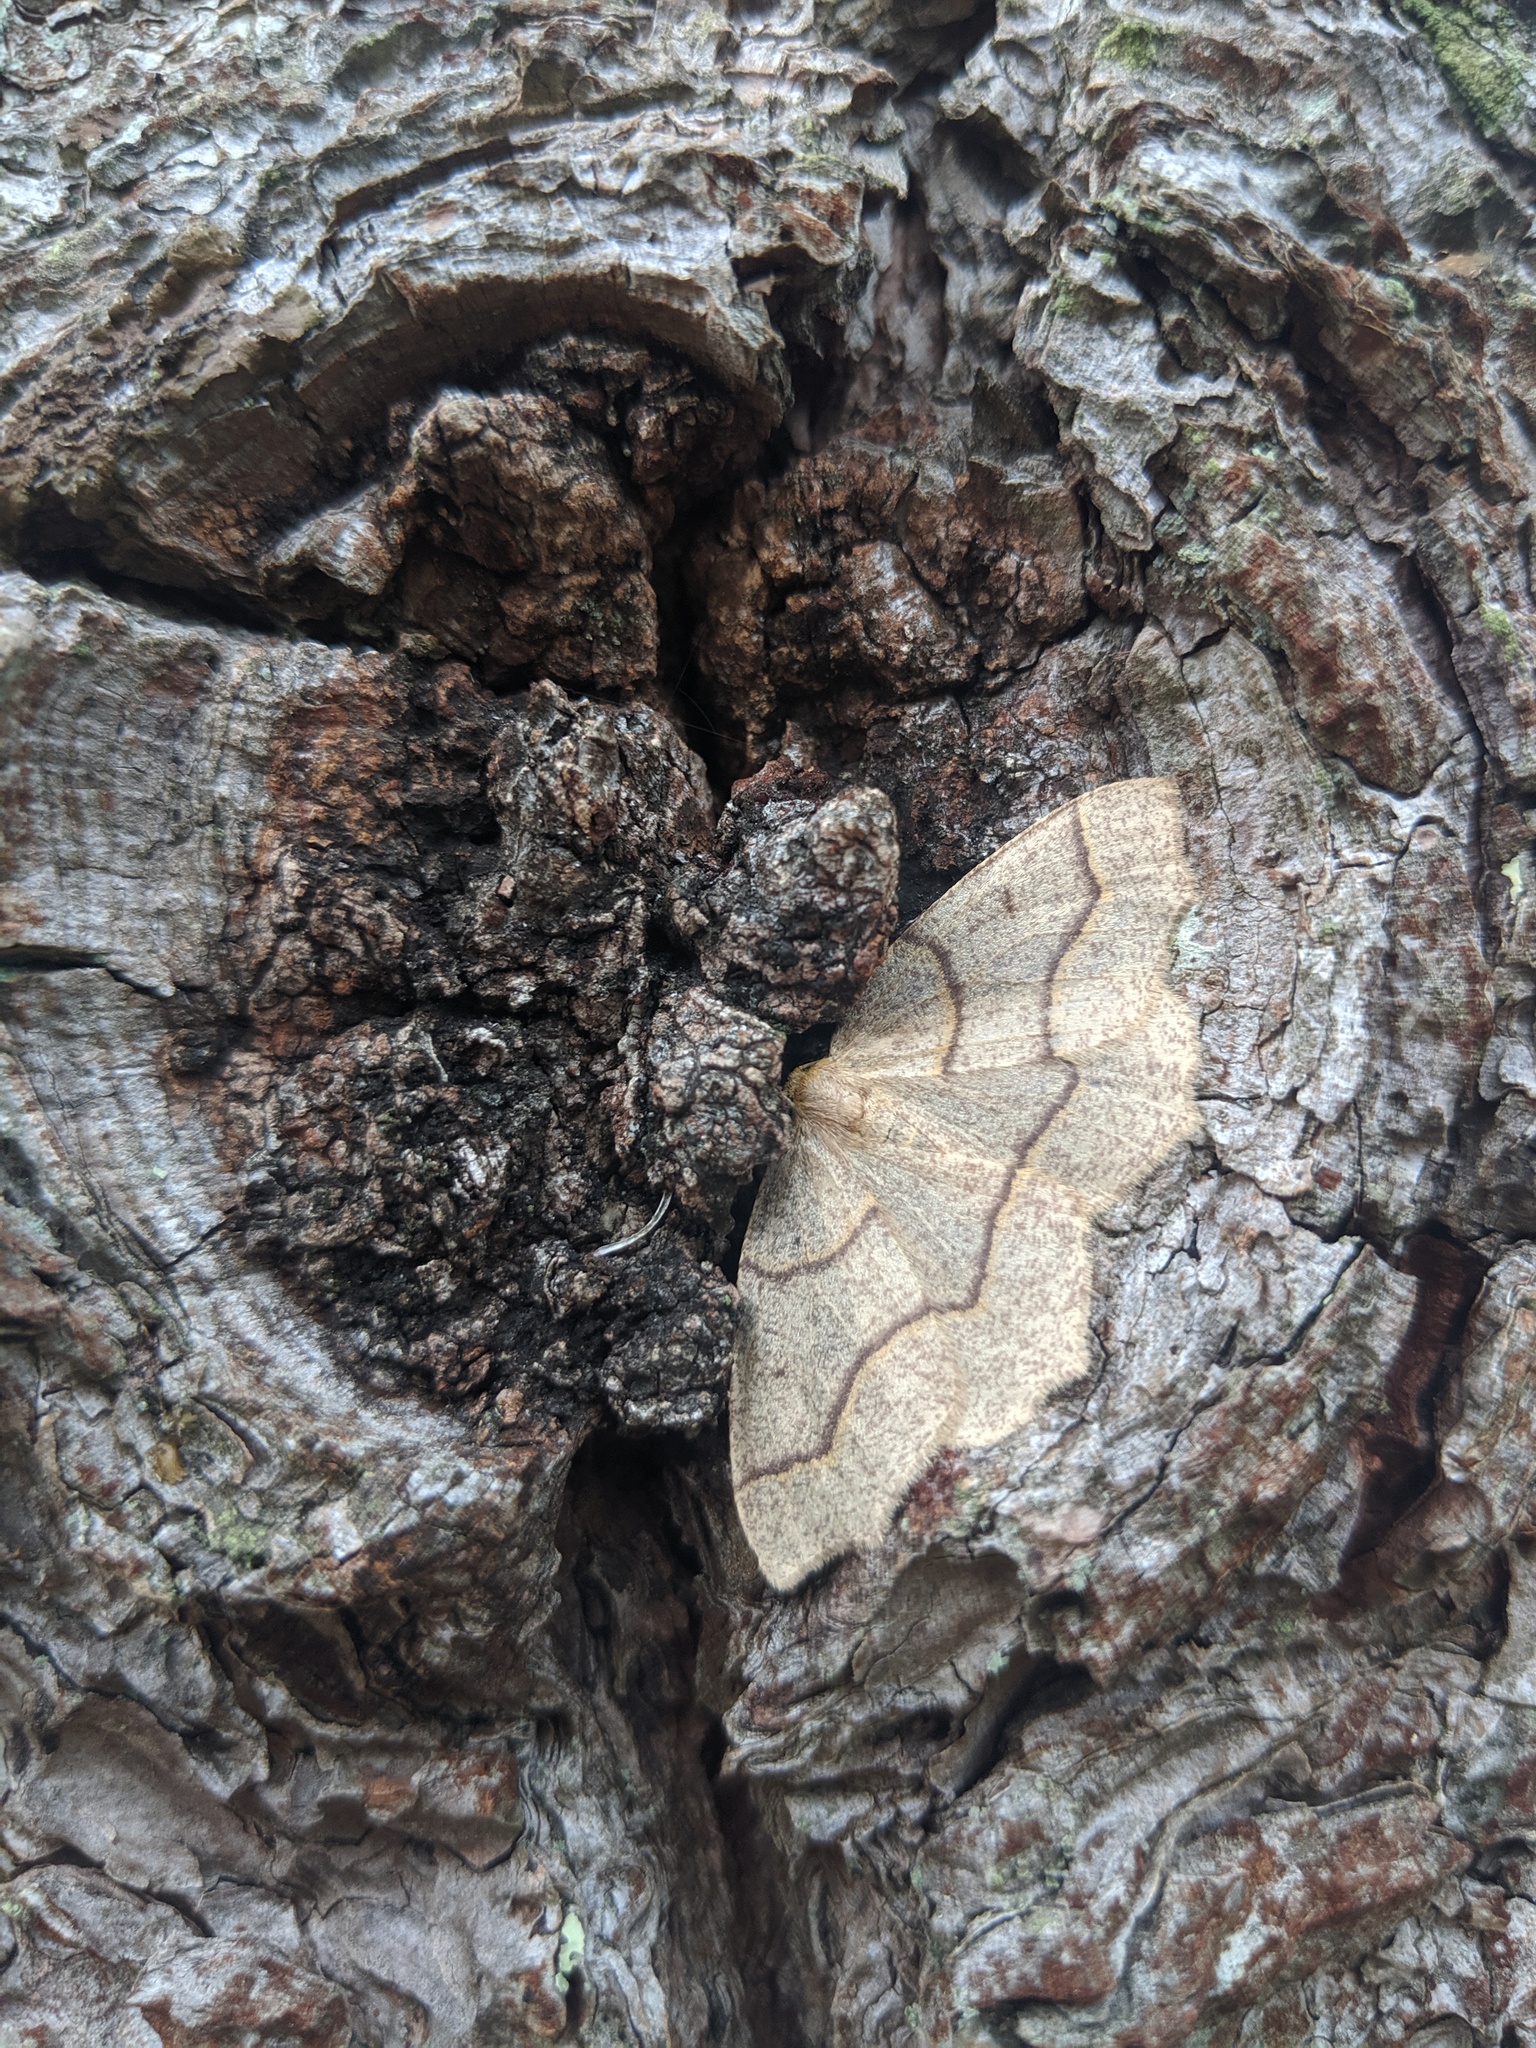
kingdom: Animalia
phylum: Arthropoda
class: Insecta
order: Lepidoptera
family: Geometridae
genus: Lambdina
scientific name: Lambdina fiscellaria
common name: Hemlock looper
